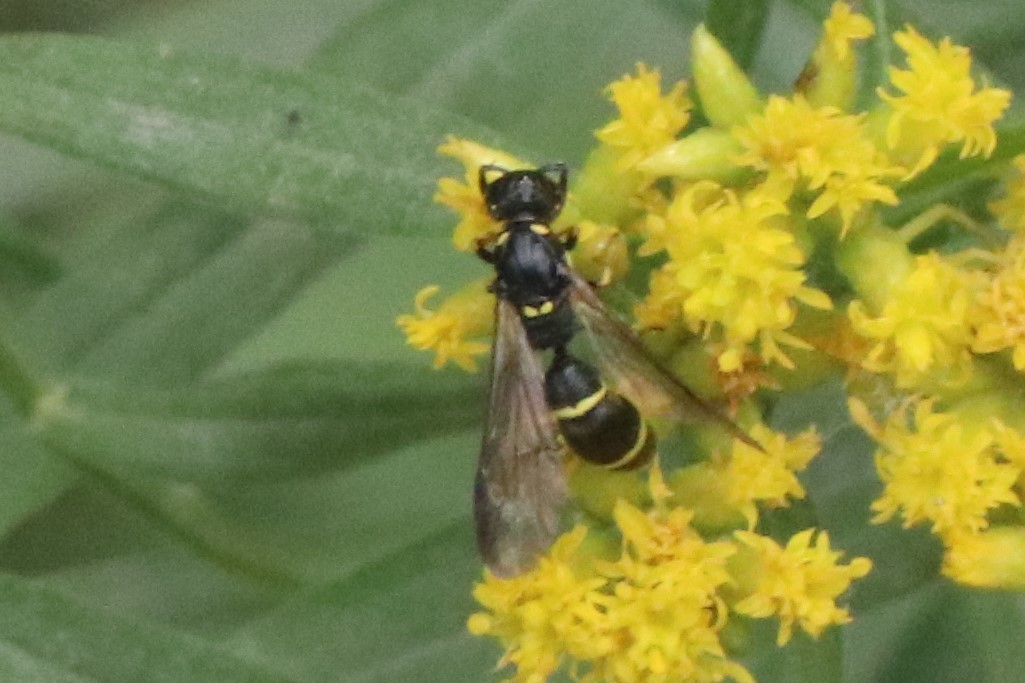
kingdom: Animalia
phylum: Arthropoda
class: Insecta
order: Hymenoptera
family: Eumenidae
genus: Symmorphus
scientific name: Symmorphus
